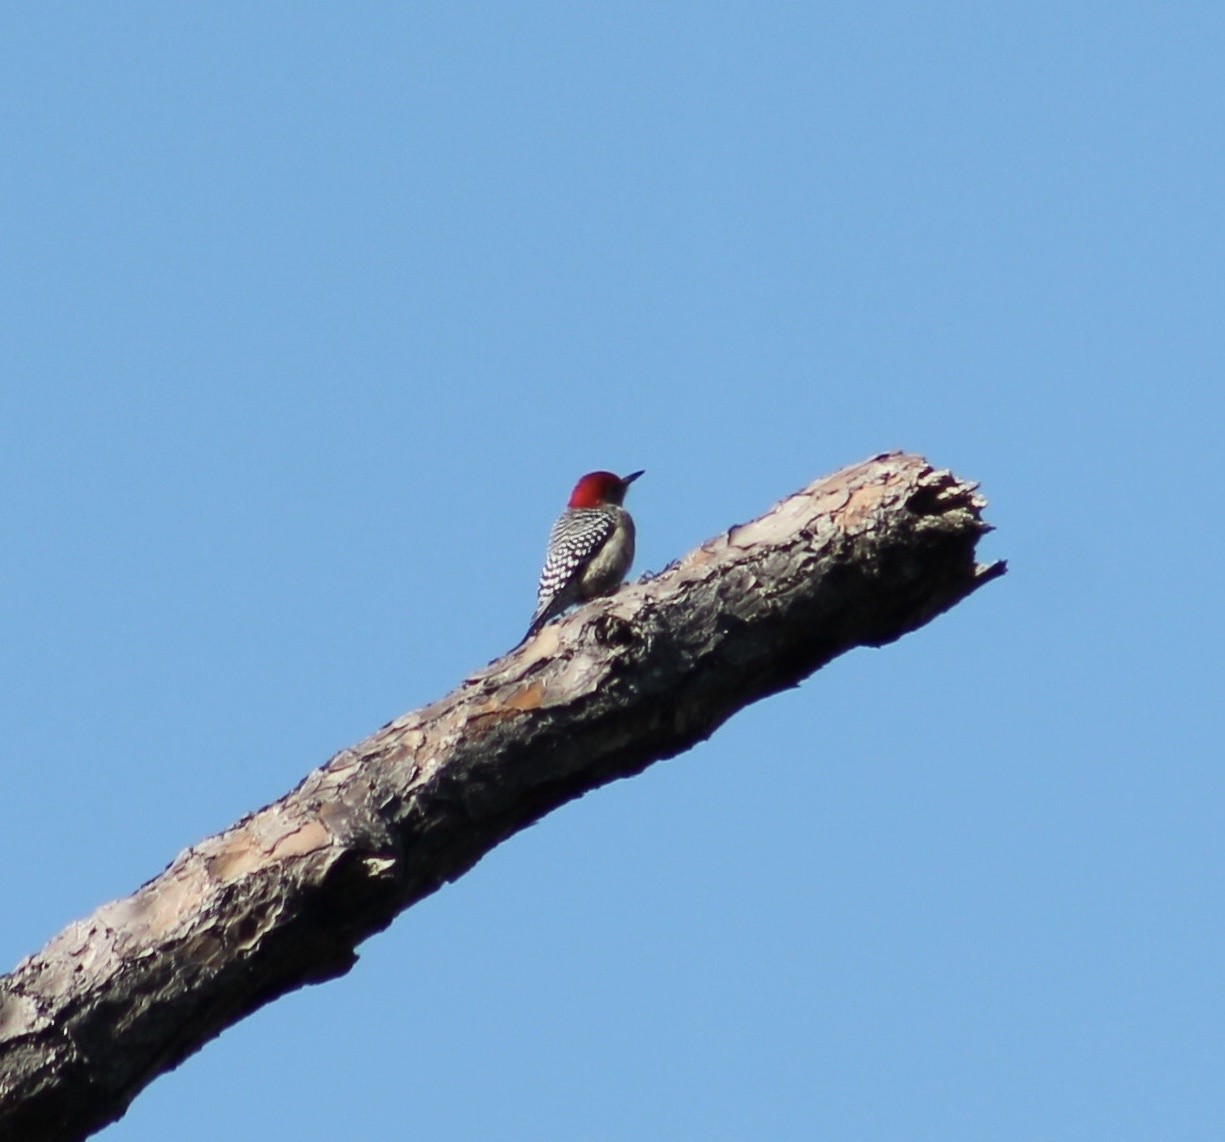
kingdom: Animalia
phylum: Chordata
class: Aves
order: Piciformes
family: Picidae
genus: Melanerpes
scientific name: Melanerpes carolinus
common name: Red-bellied woodpecker
